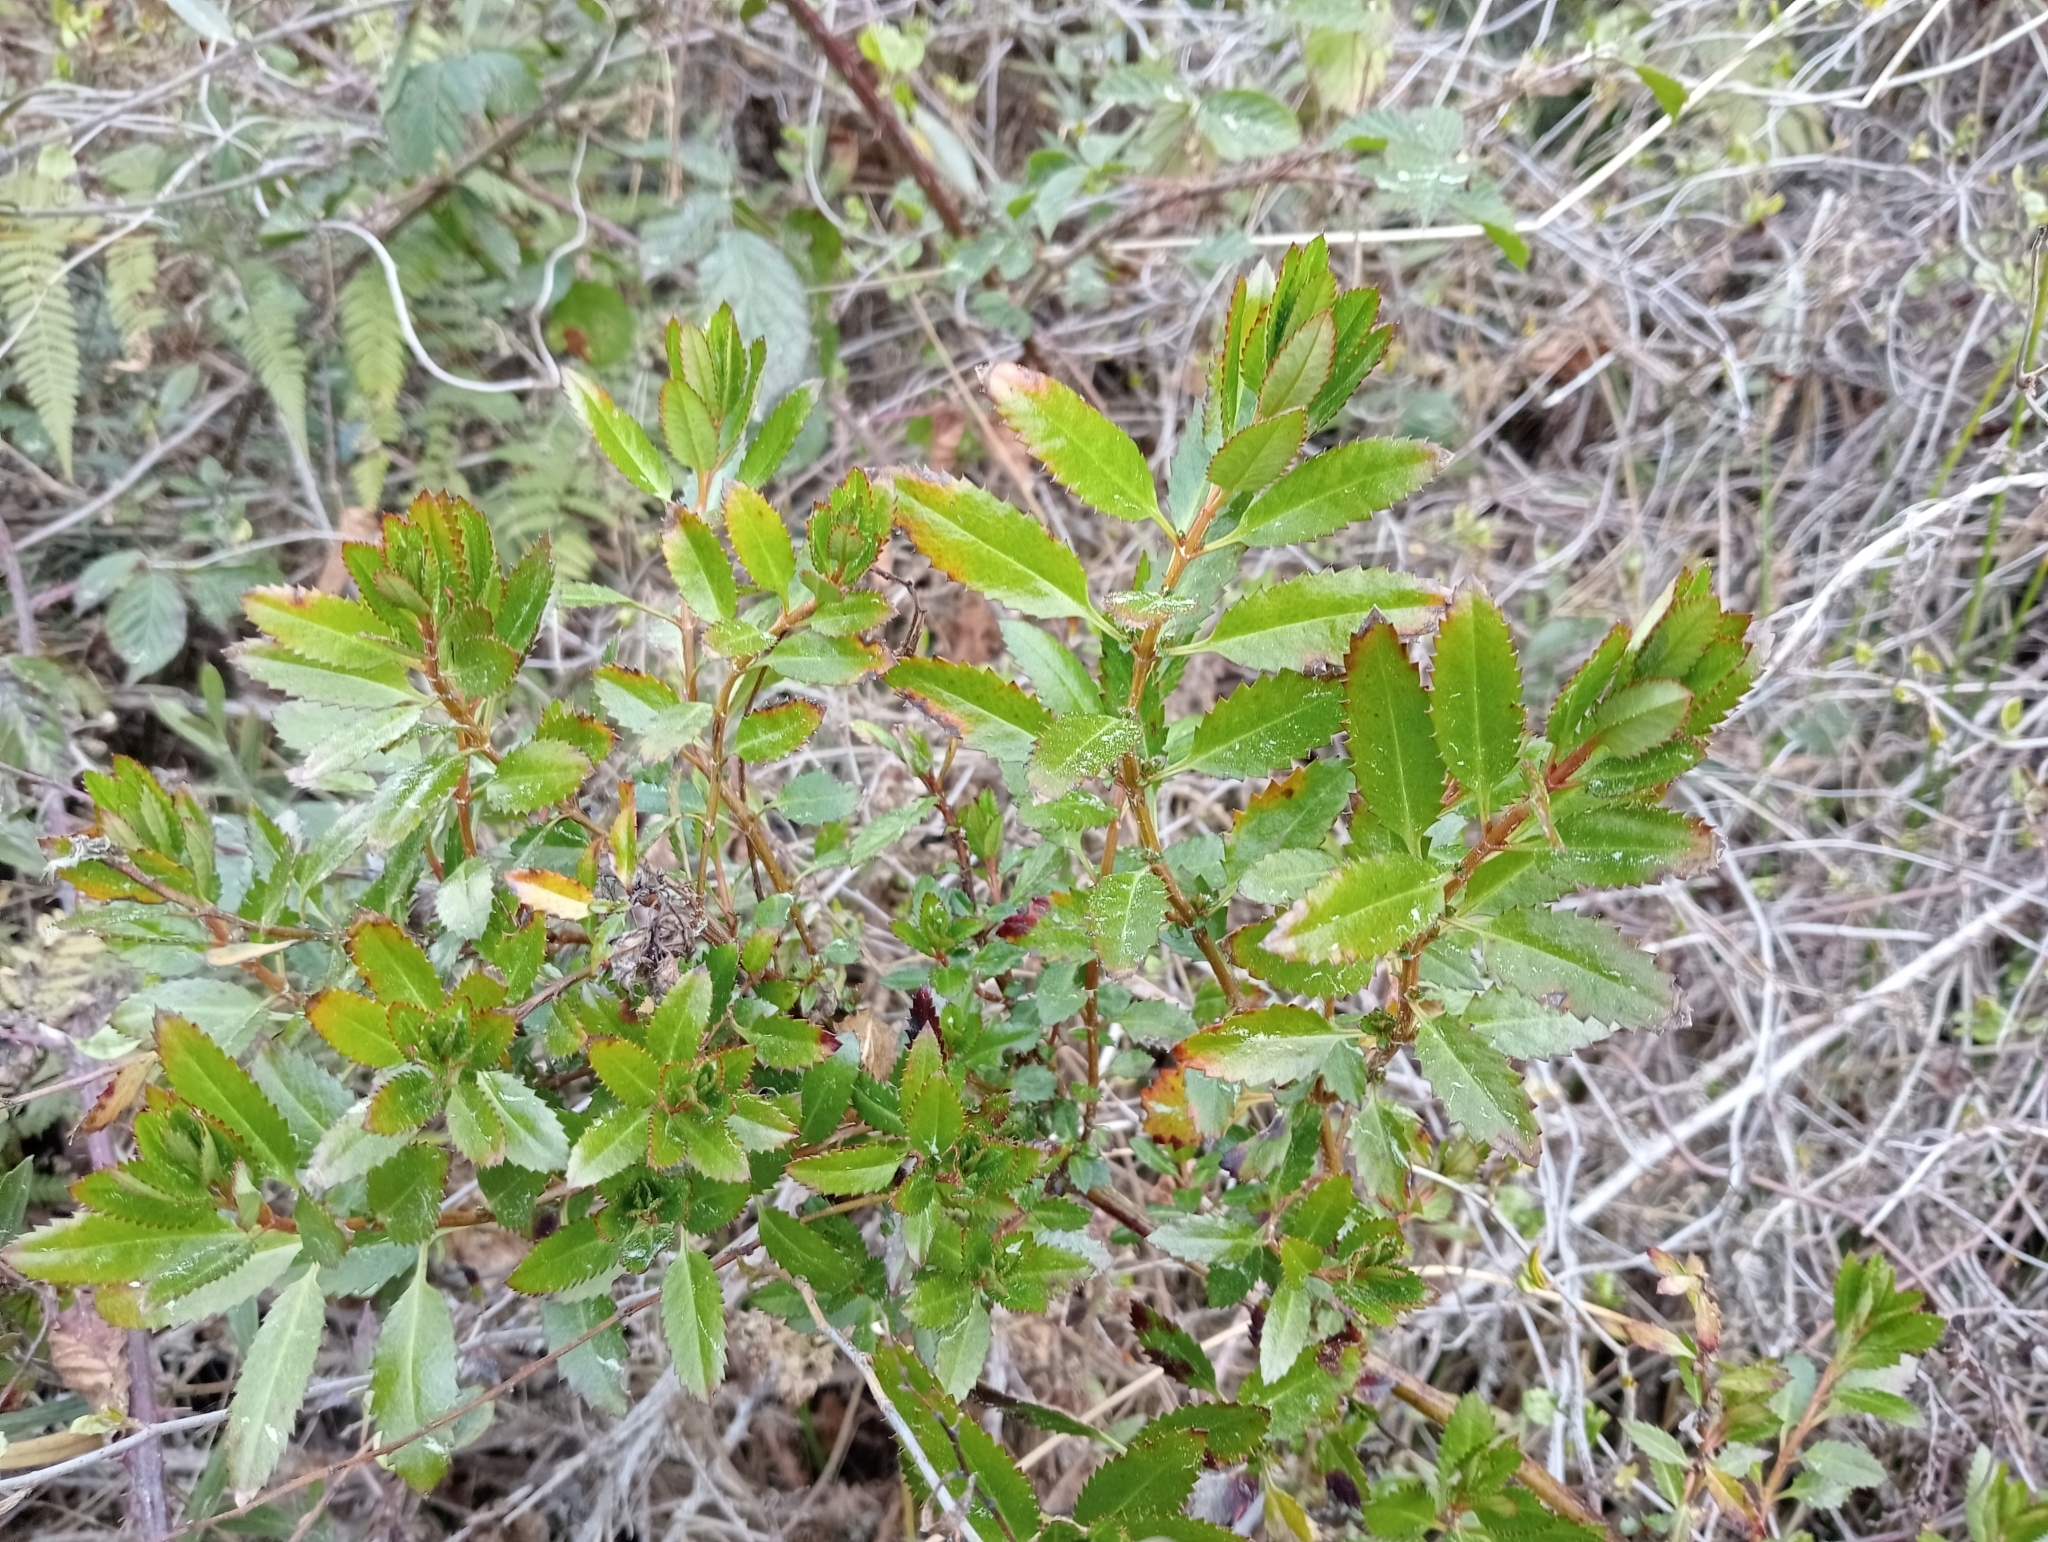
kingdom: Plantae
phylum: Tracheophyta
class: Magnoliopsida
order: Saxifragales
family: Haloragaceae
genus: Haloragis
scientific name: Haloragis erecta
